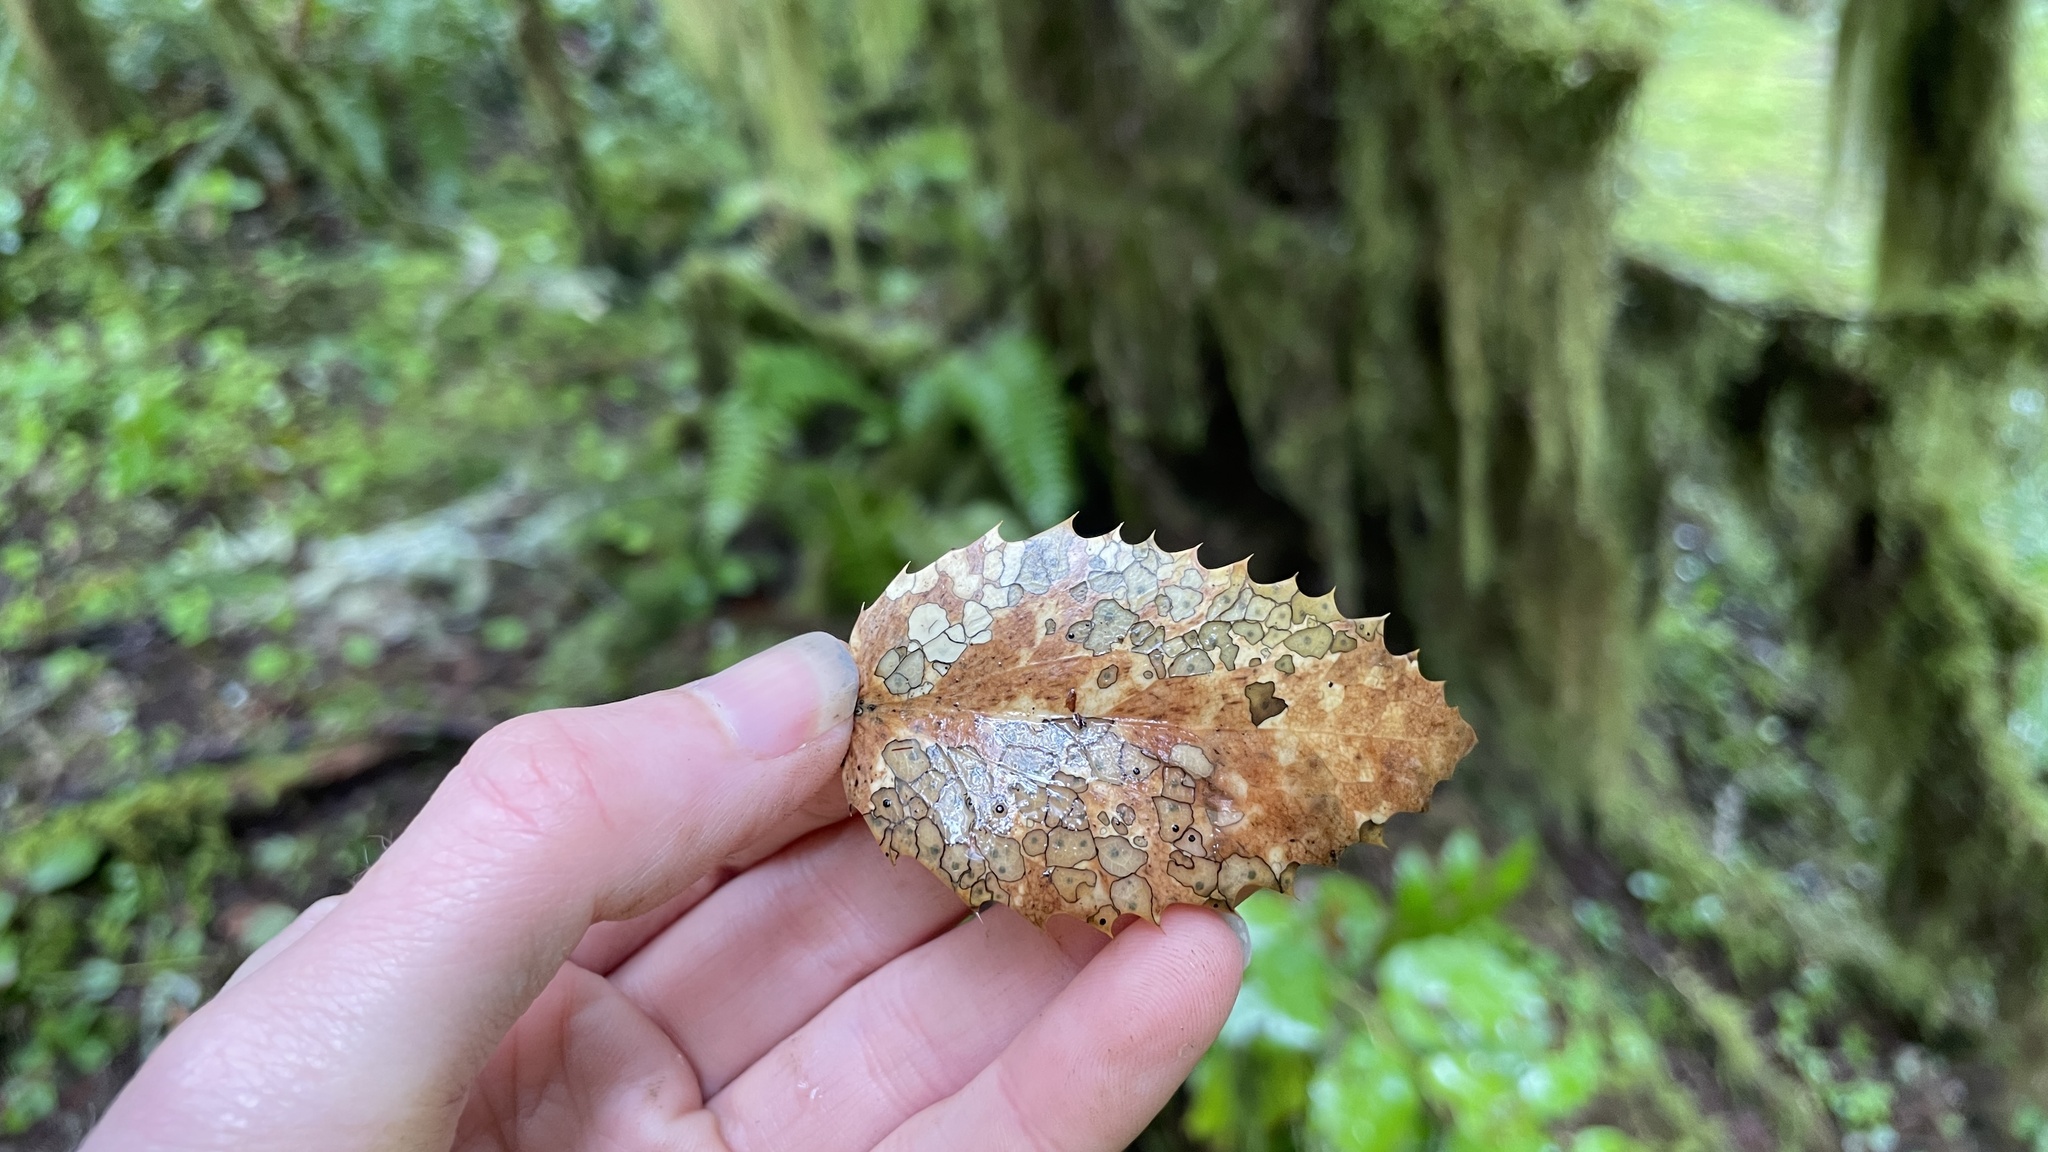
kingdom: Fungi
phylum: Ascomycota
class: Leotiomycetes
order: Rhytismatales
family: Rhytismataceae
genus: Coccomyces
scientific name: Coccomyces dentatus
